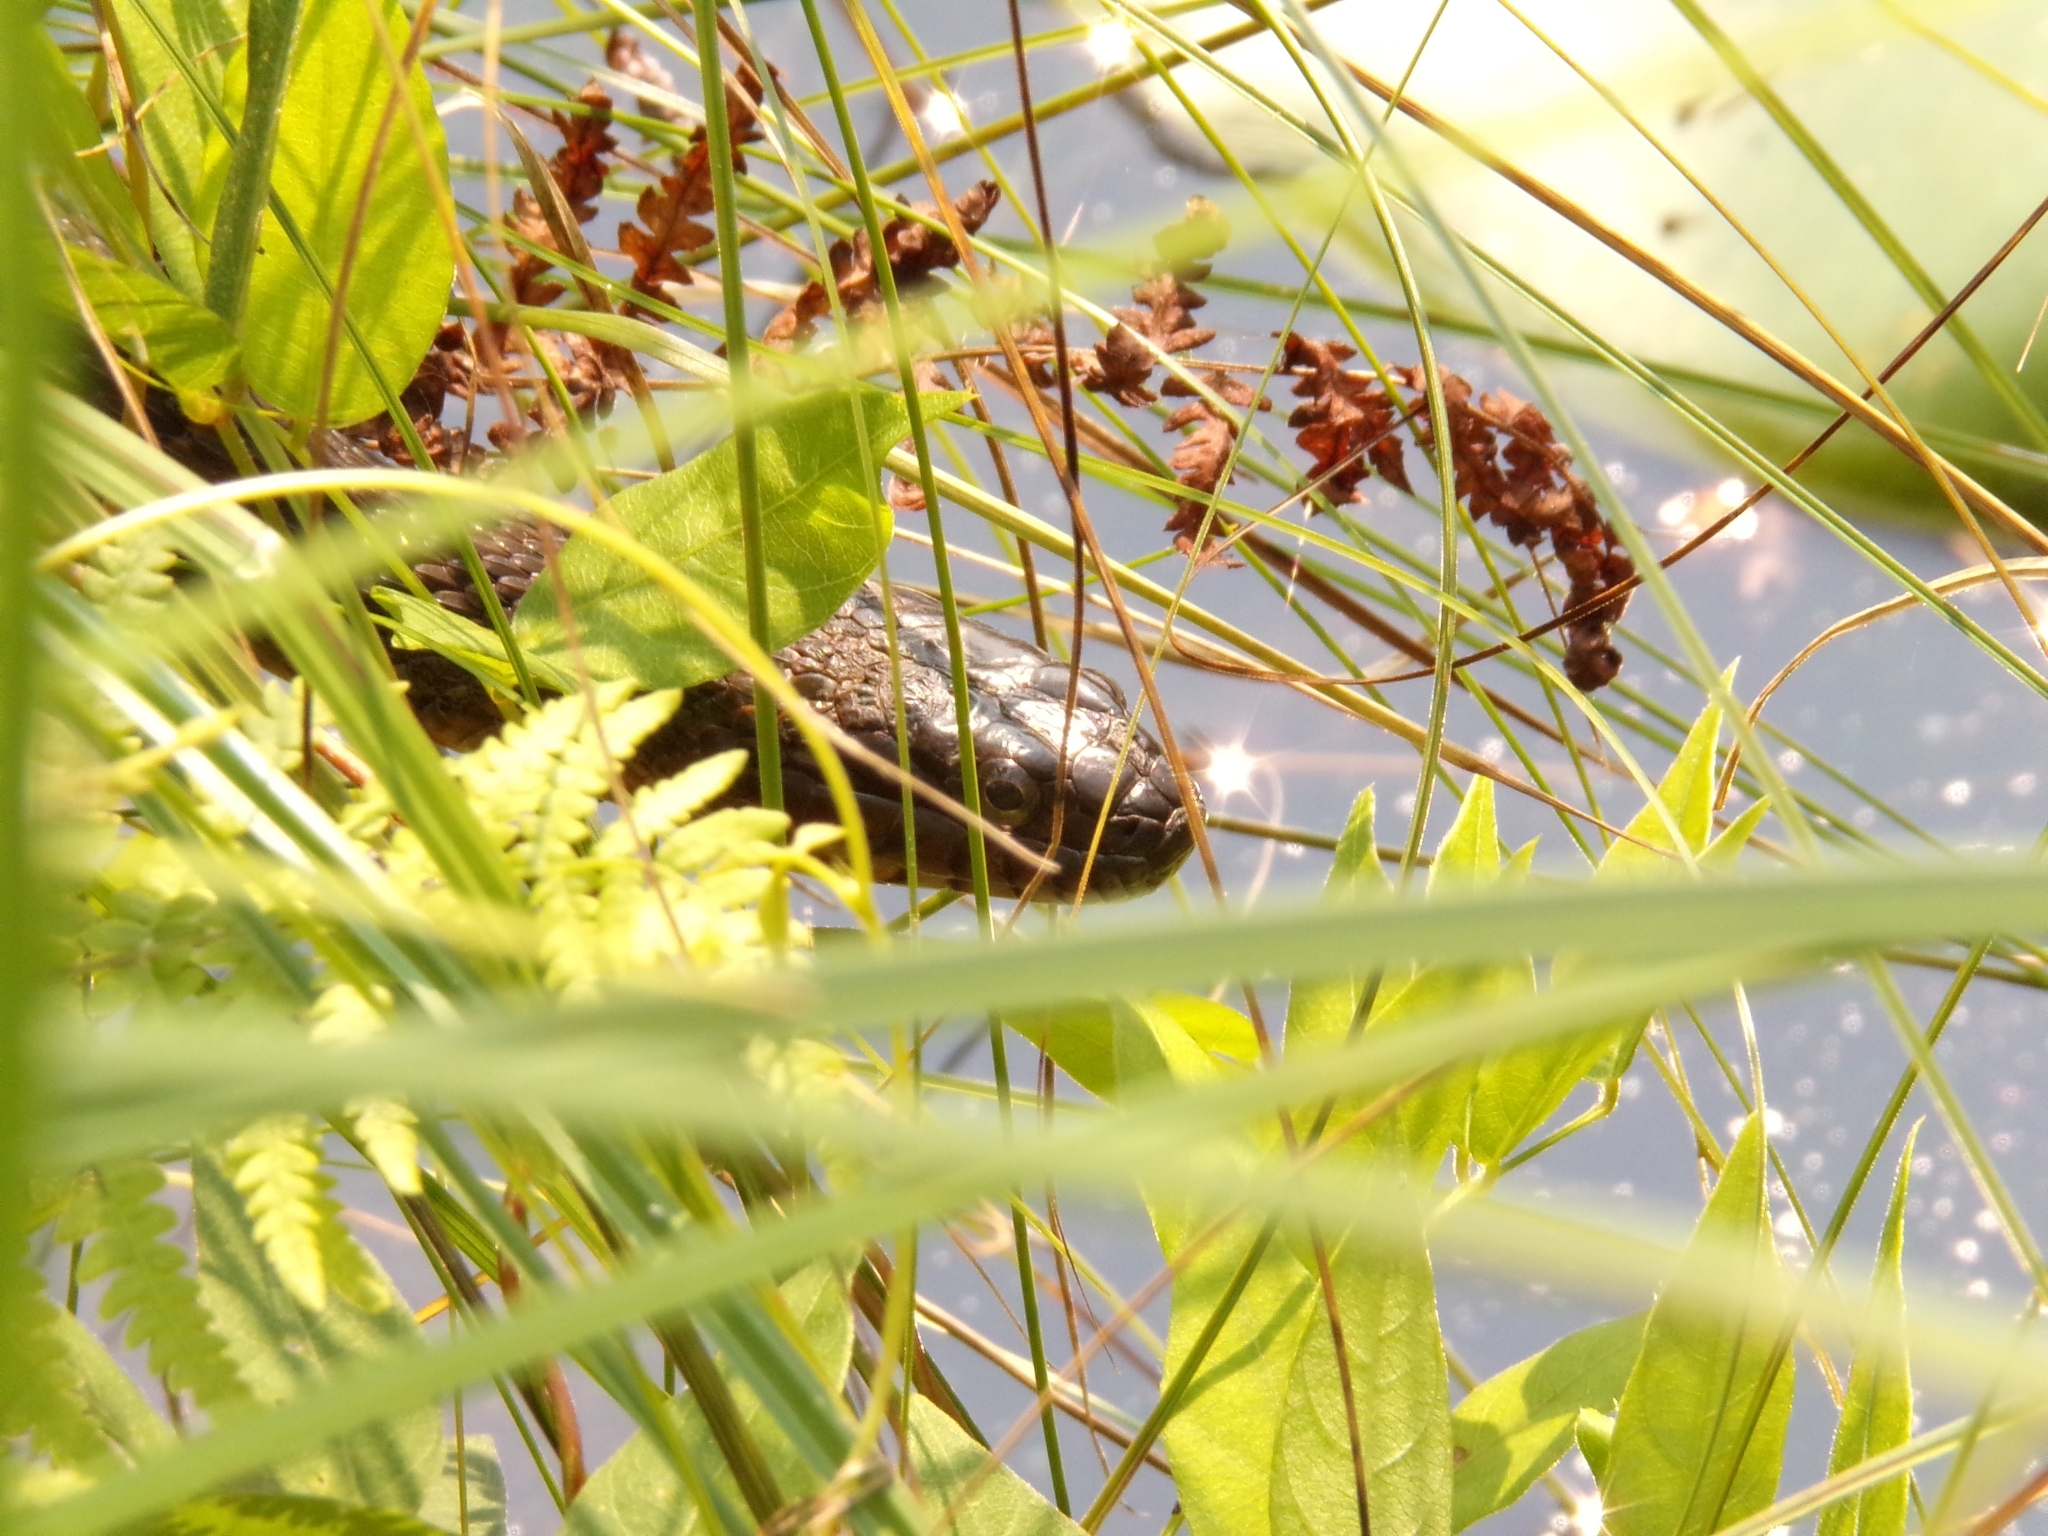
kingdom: Animalia
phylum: Chordata
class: Squamata
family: Colubridae
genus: Nerodia
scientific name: Nerodia sipedon
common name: Northern water snake
